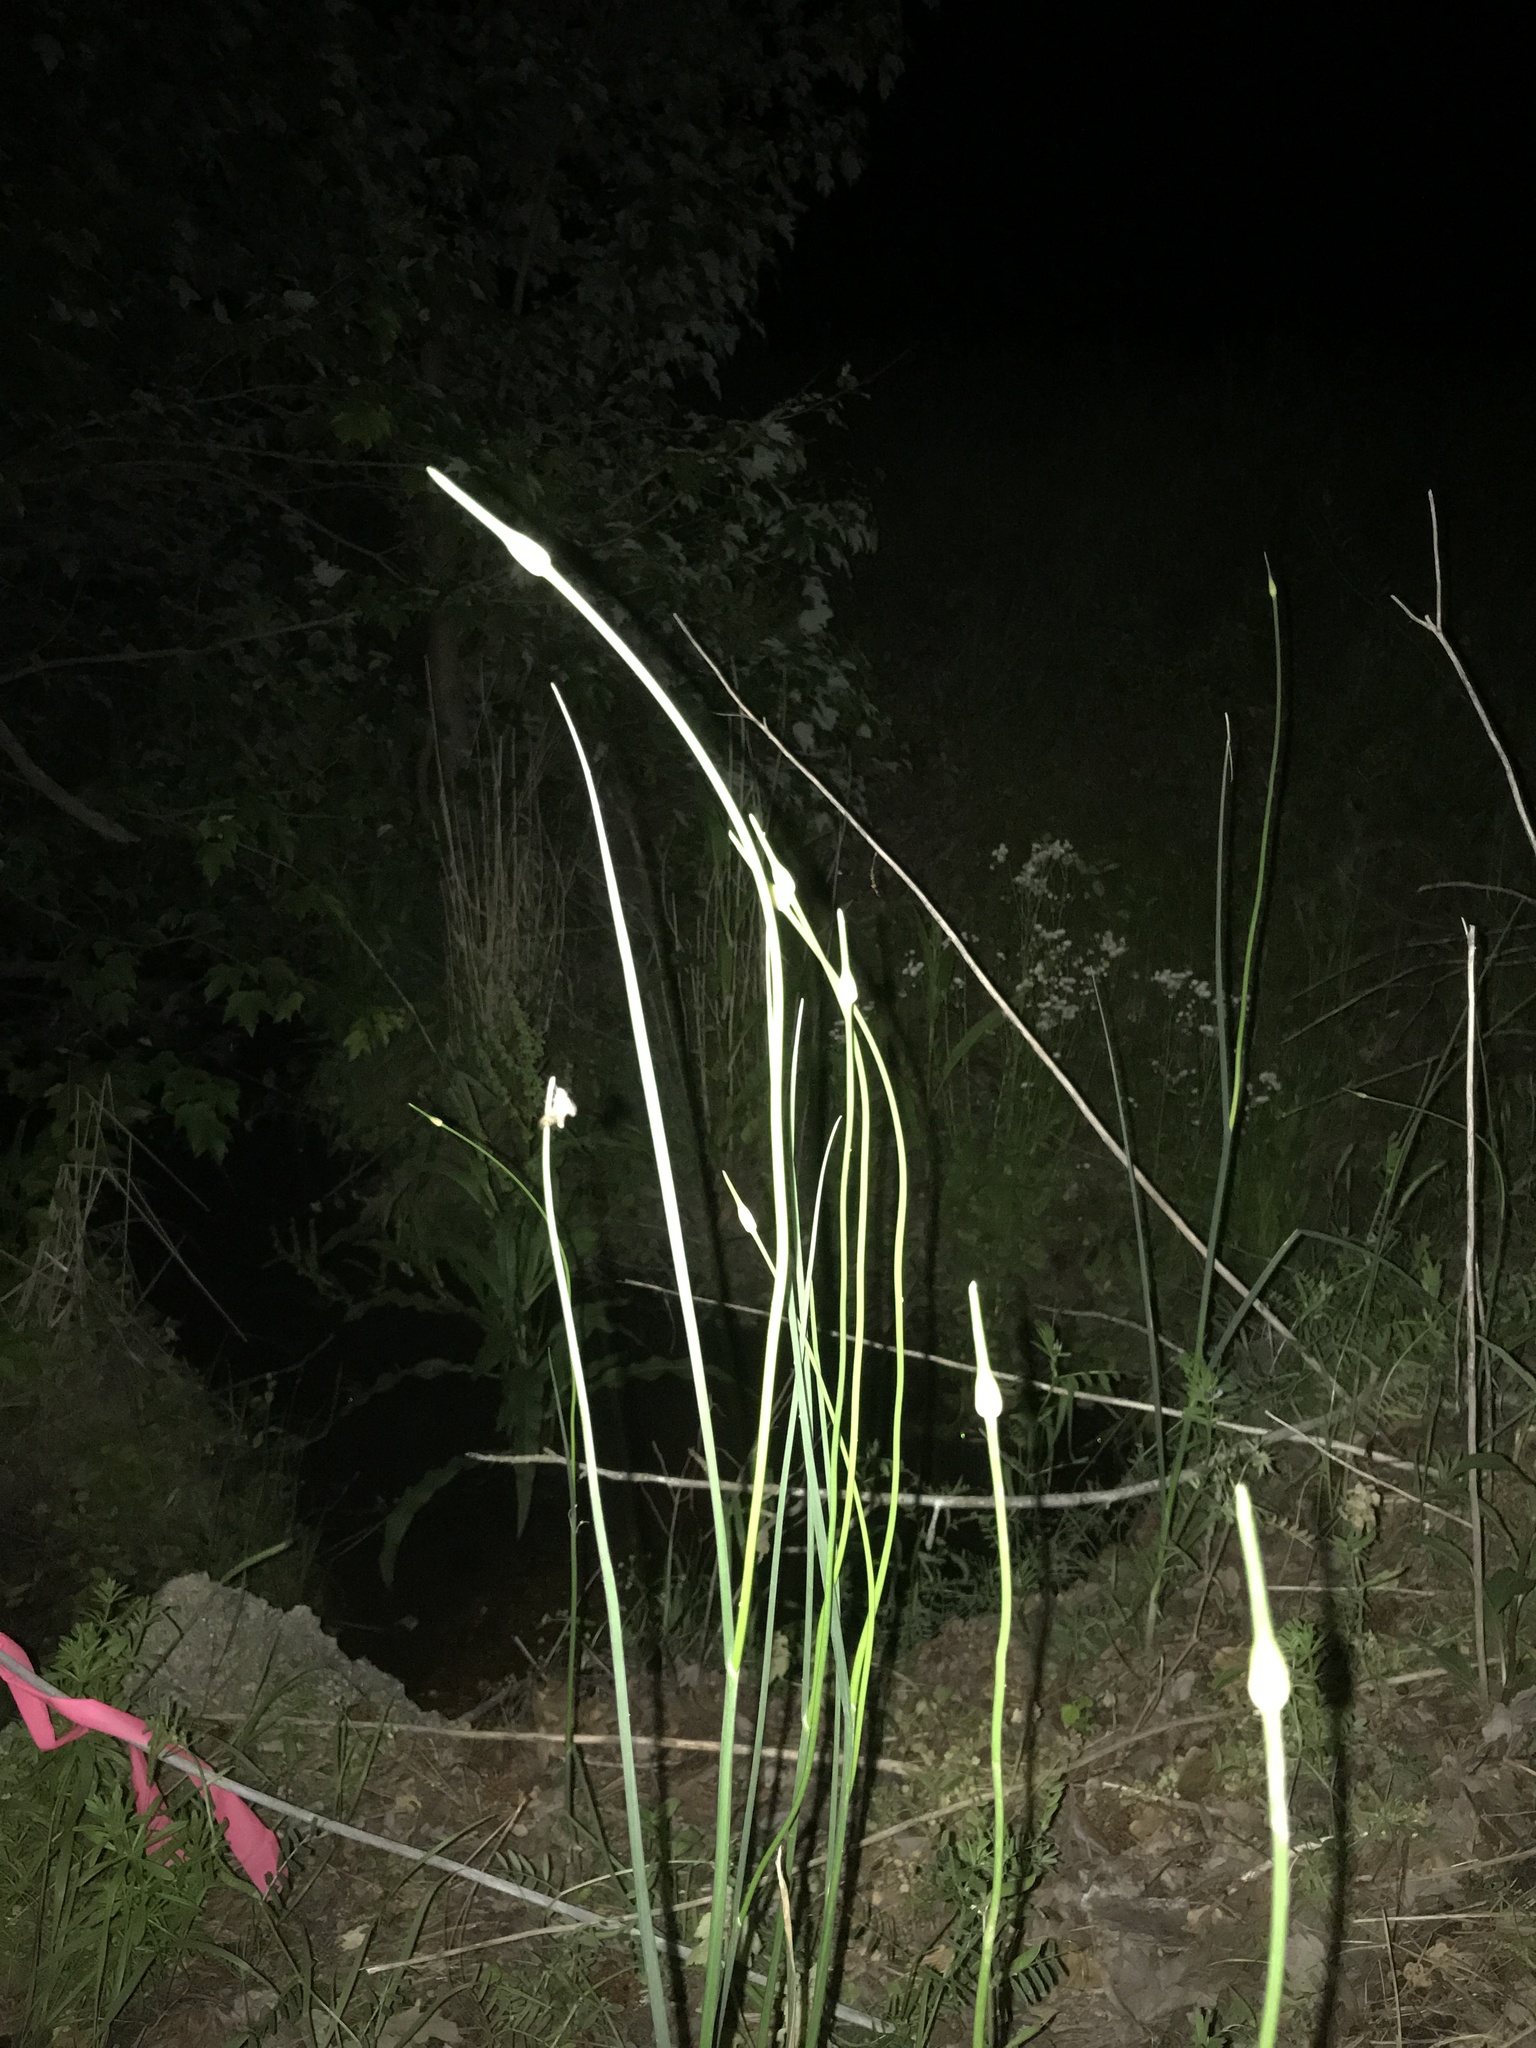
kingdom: Plantae
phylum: Tracheophyta
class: Liliopsida
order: Asparagales
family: Amaryllidaceae
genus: Allium
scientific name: Allium vineale
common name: Crow garlic
